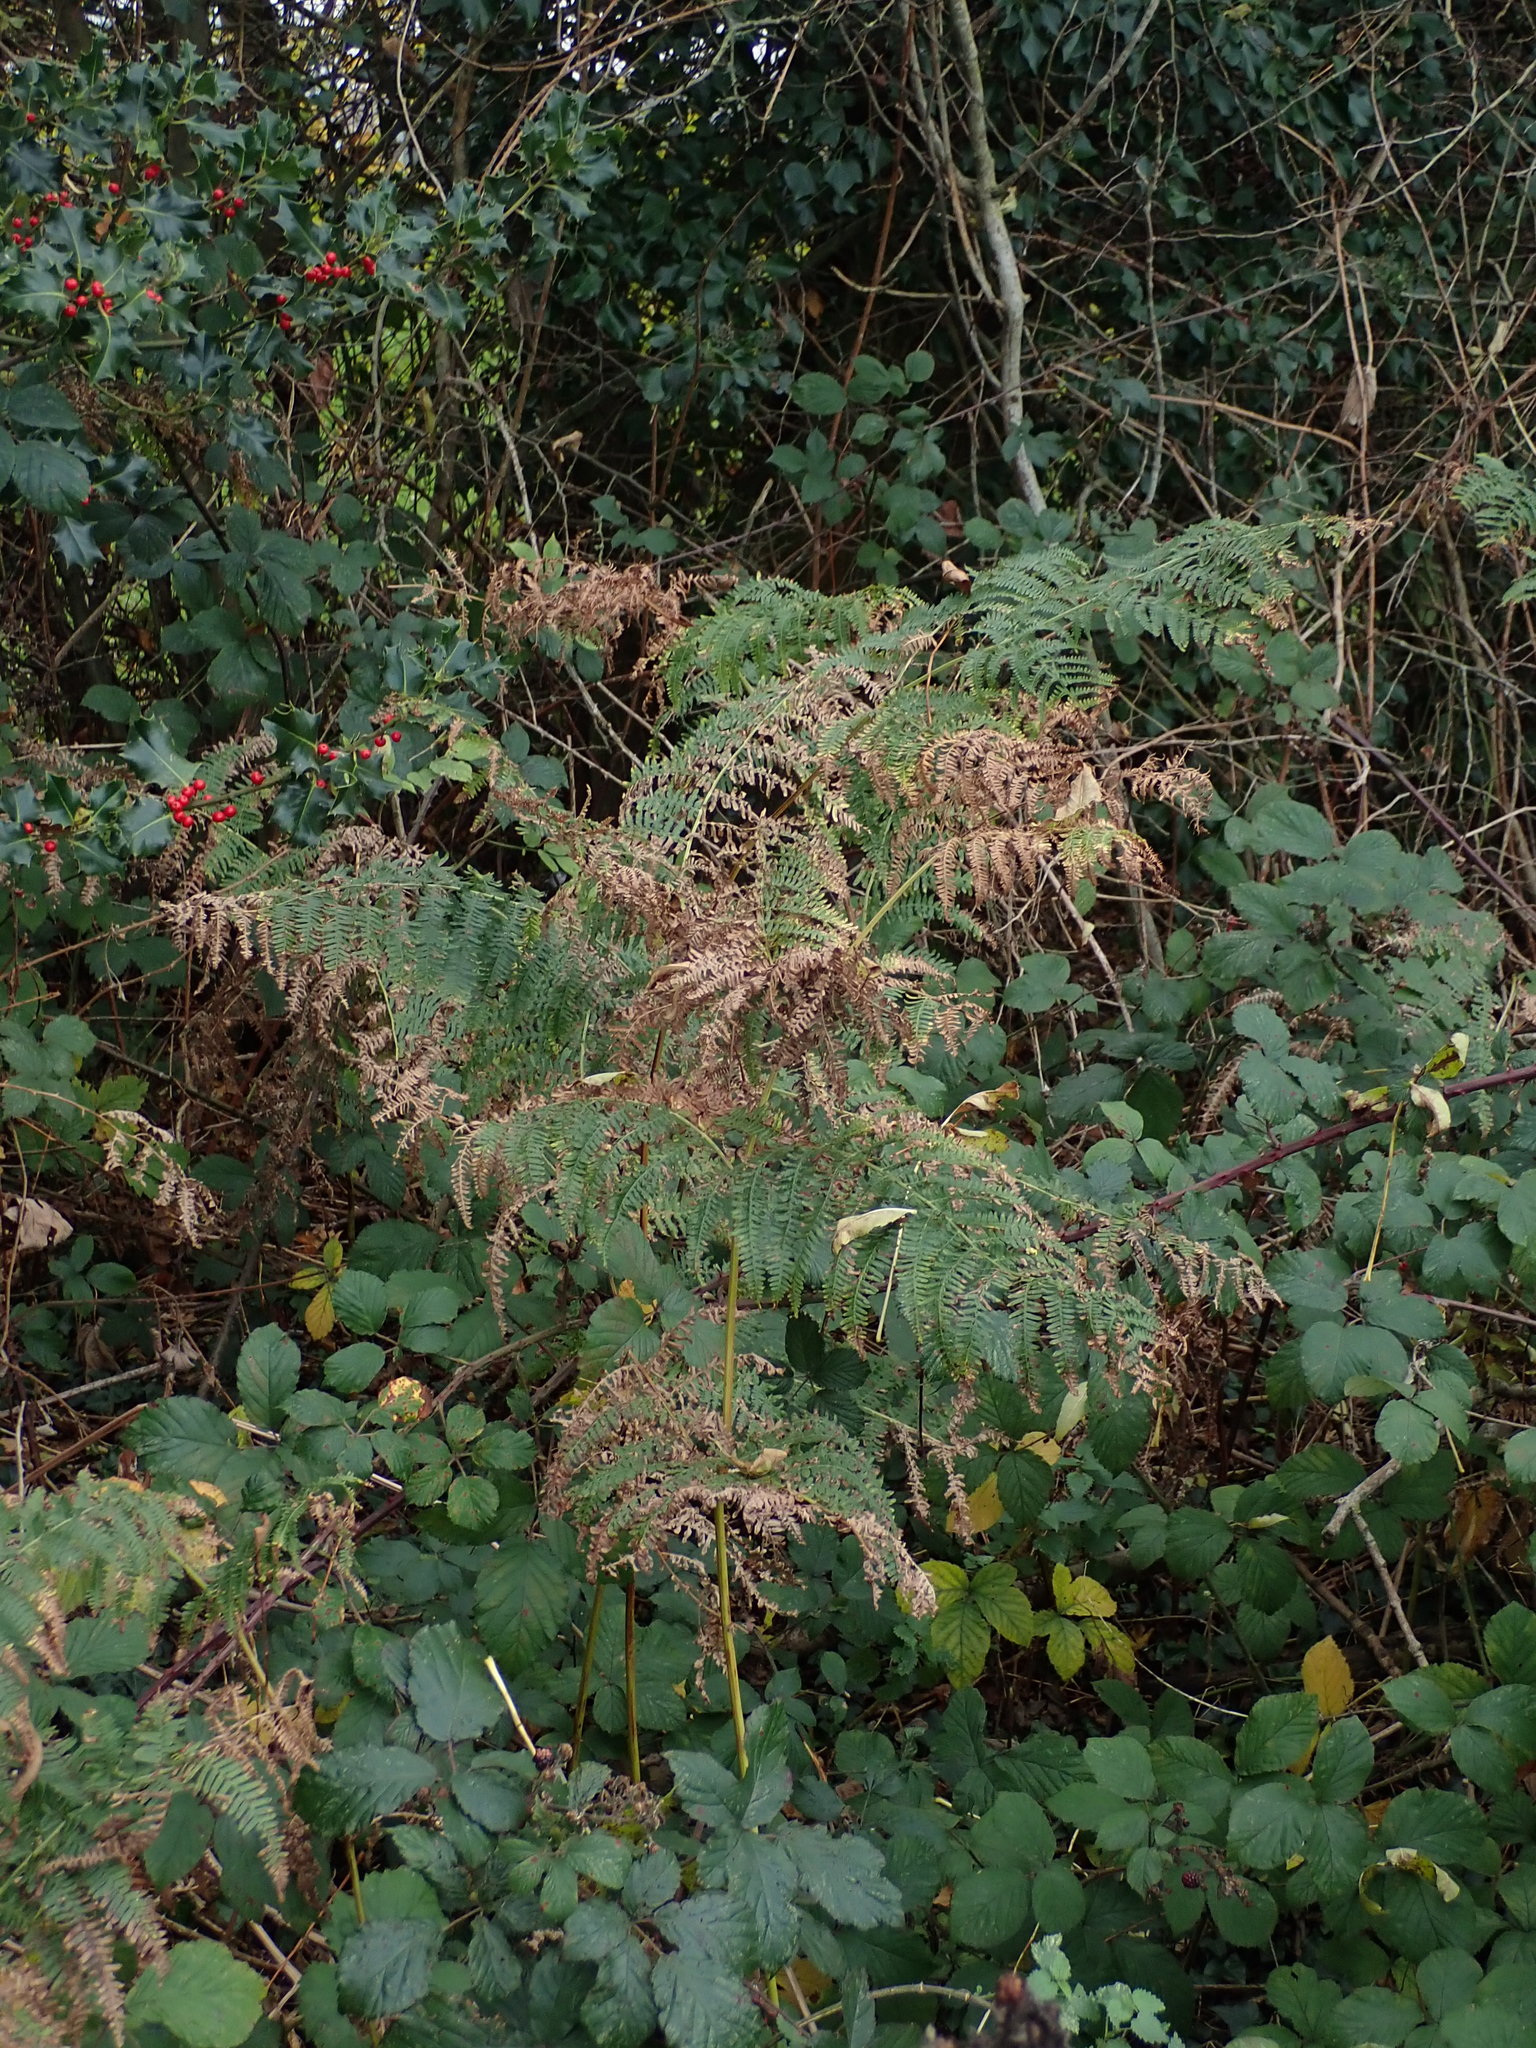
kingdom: Plantae
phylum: Tracheophyta
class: Polypodiopsida
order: Polypodiales
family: Dennstaedtiaceae
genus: Pteridium
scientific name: Pteridium aquilinum
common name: Bracken
